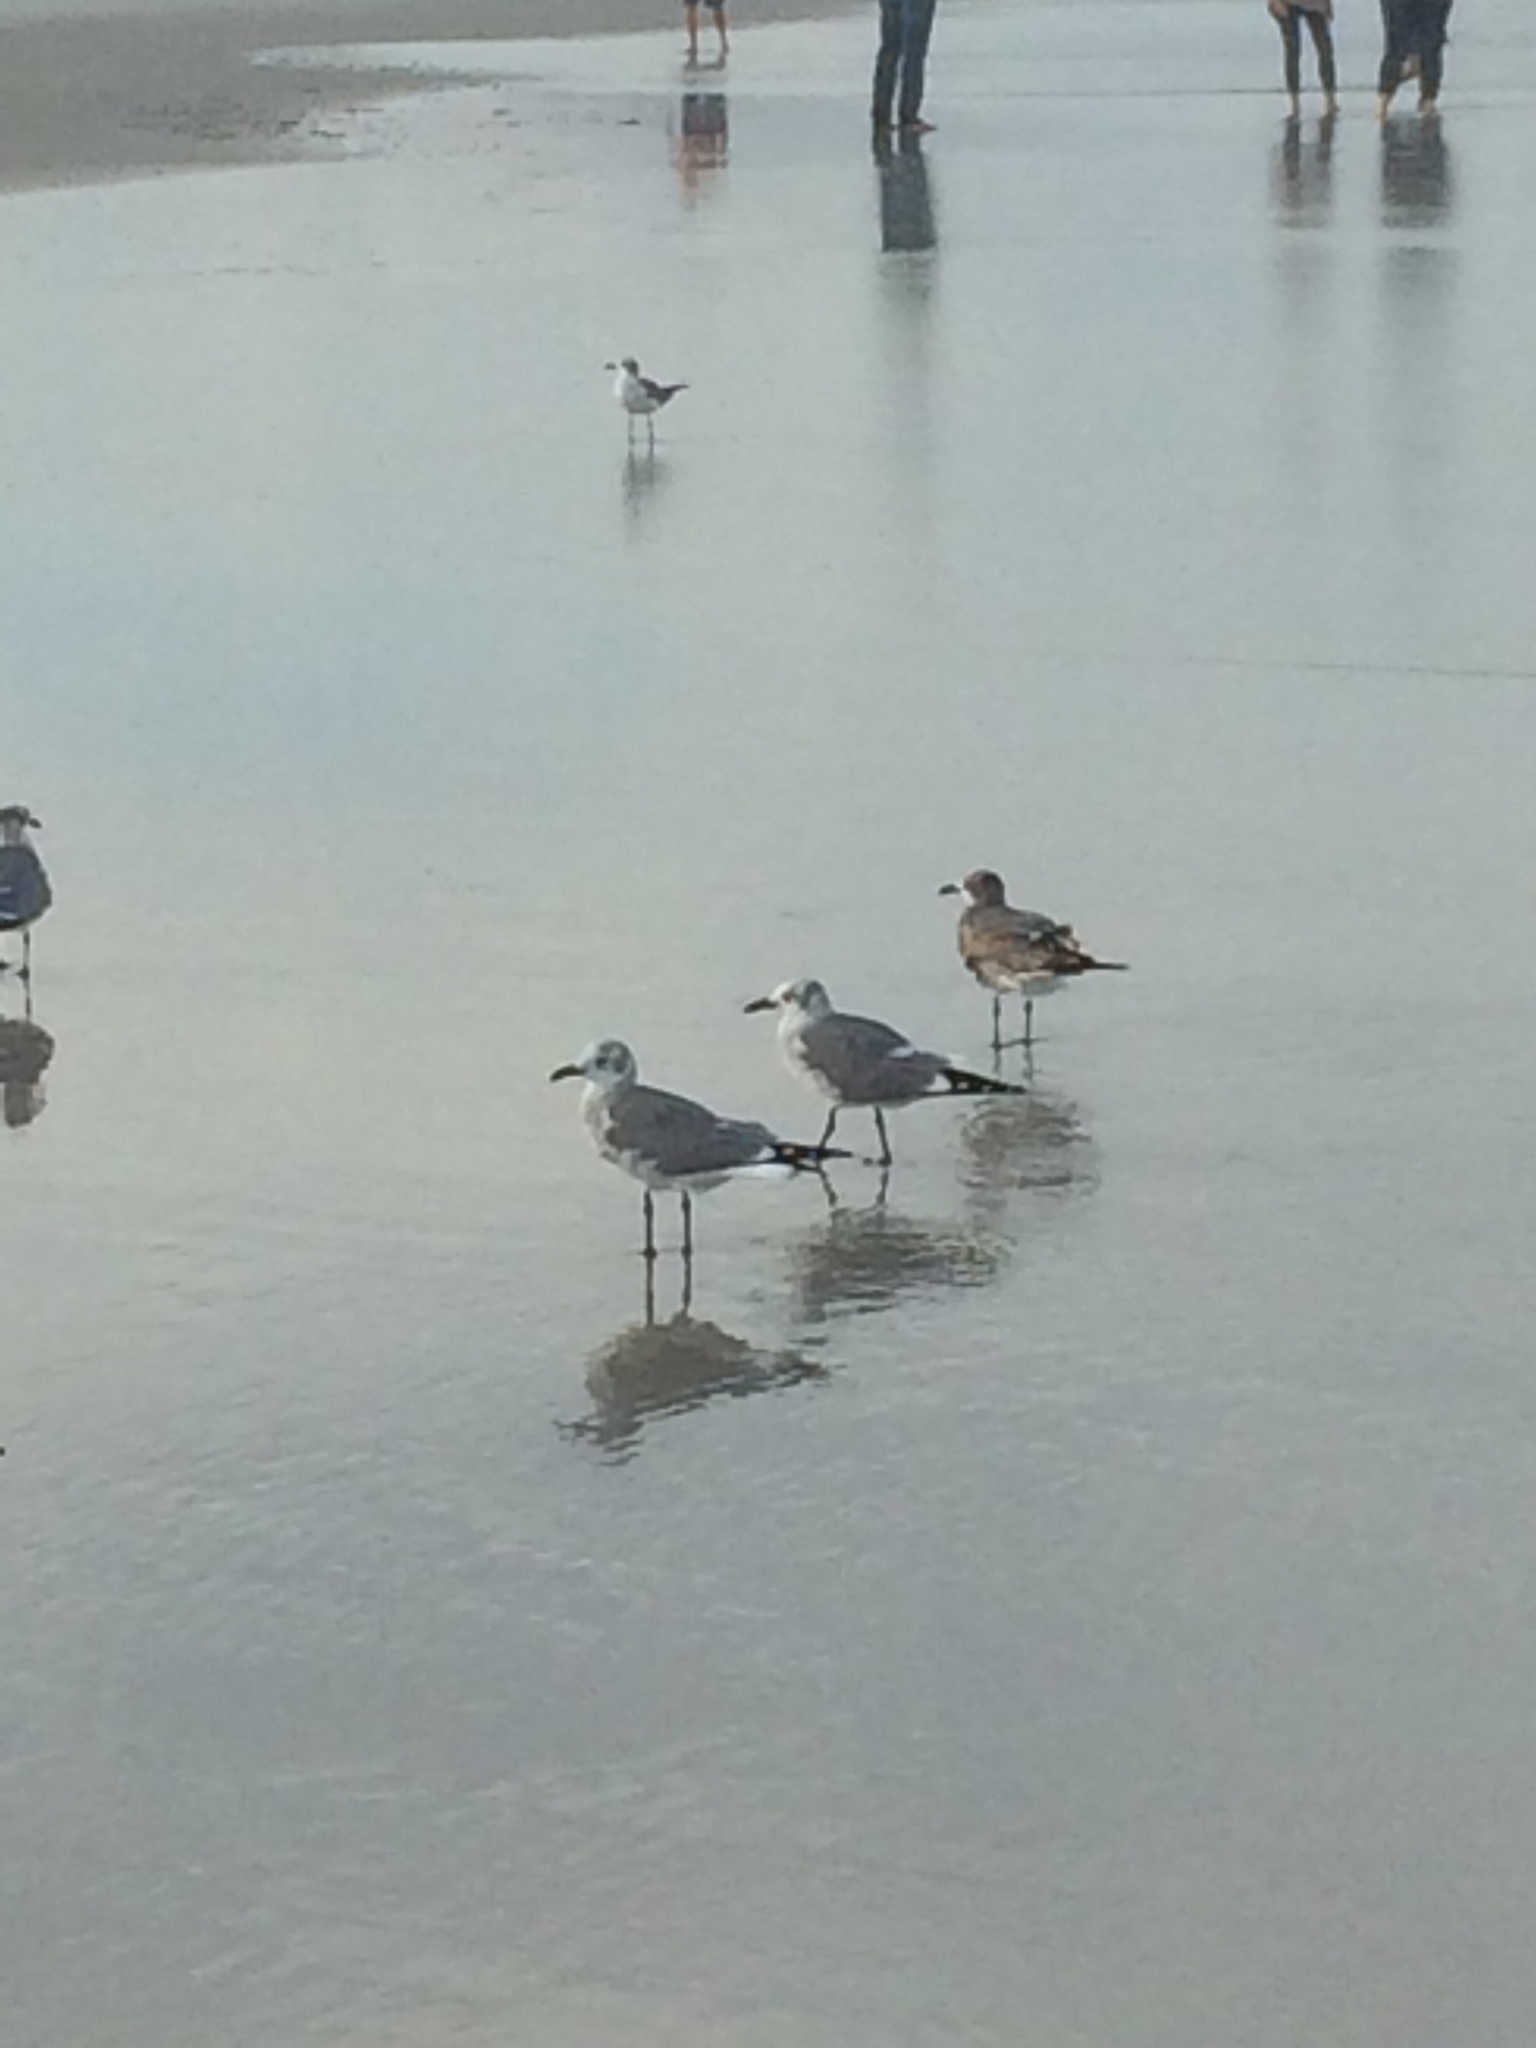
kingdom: Animalia
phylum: Chordata
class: Aves
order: Charadriiformes
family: Laridae
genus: Leucophaeus
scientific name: Leucophaeus atricilla
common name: Laughing gull
